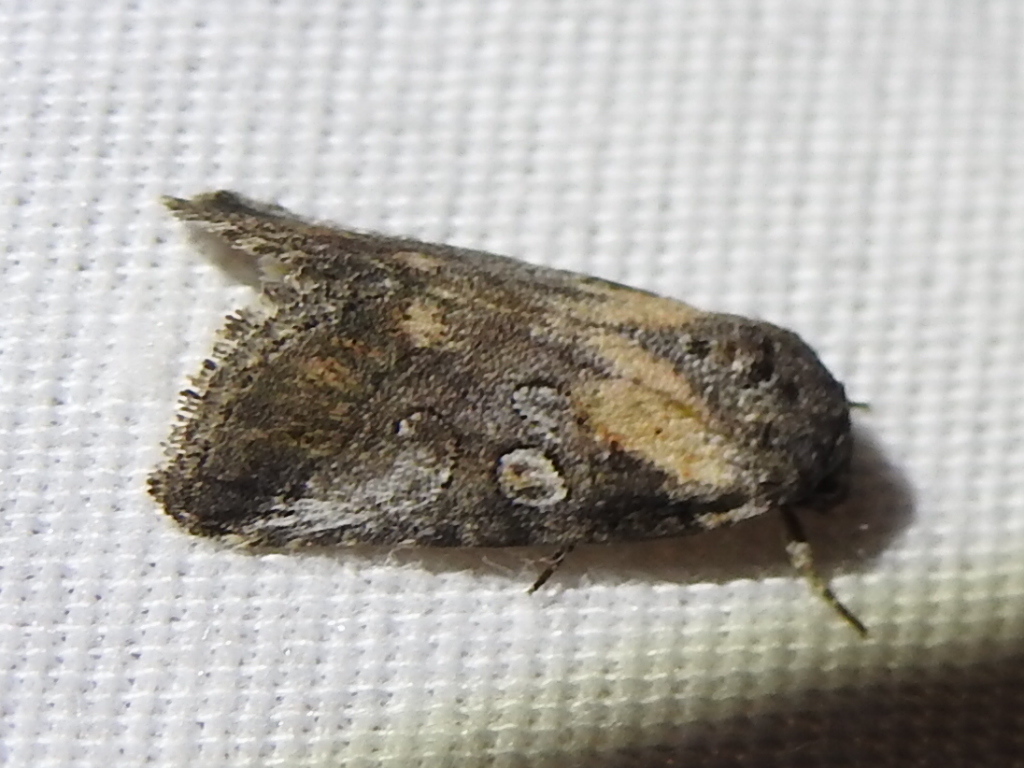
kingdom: Animalia
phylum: Arthropoda
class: Insecta
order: Lepidoptera
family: Noctuidae
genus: Aleptina
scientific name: Aleptina inca
